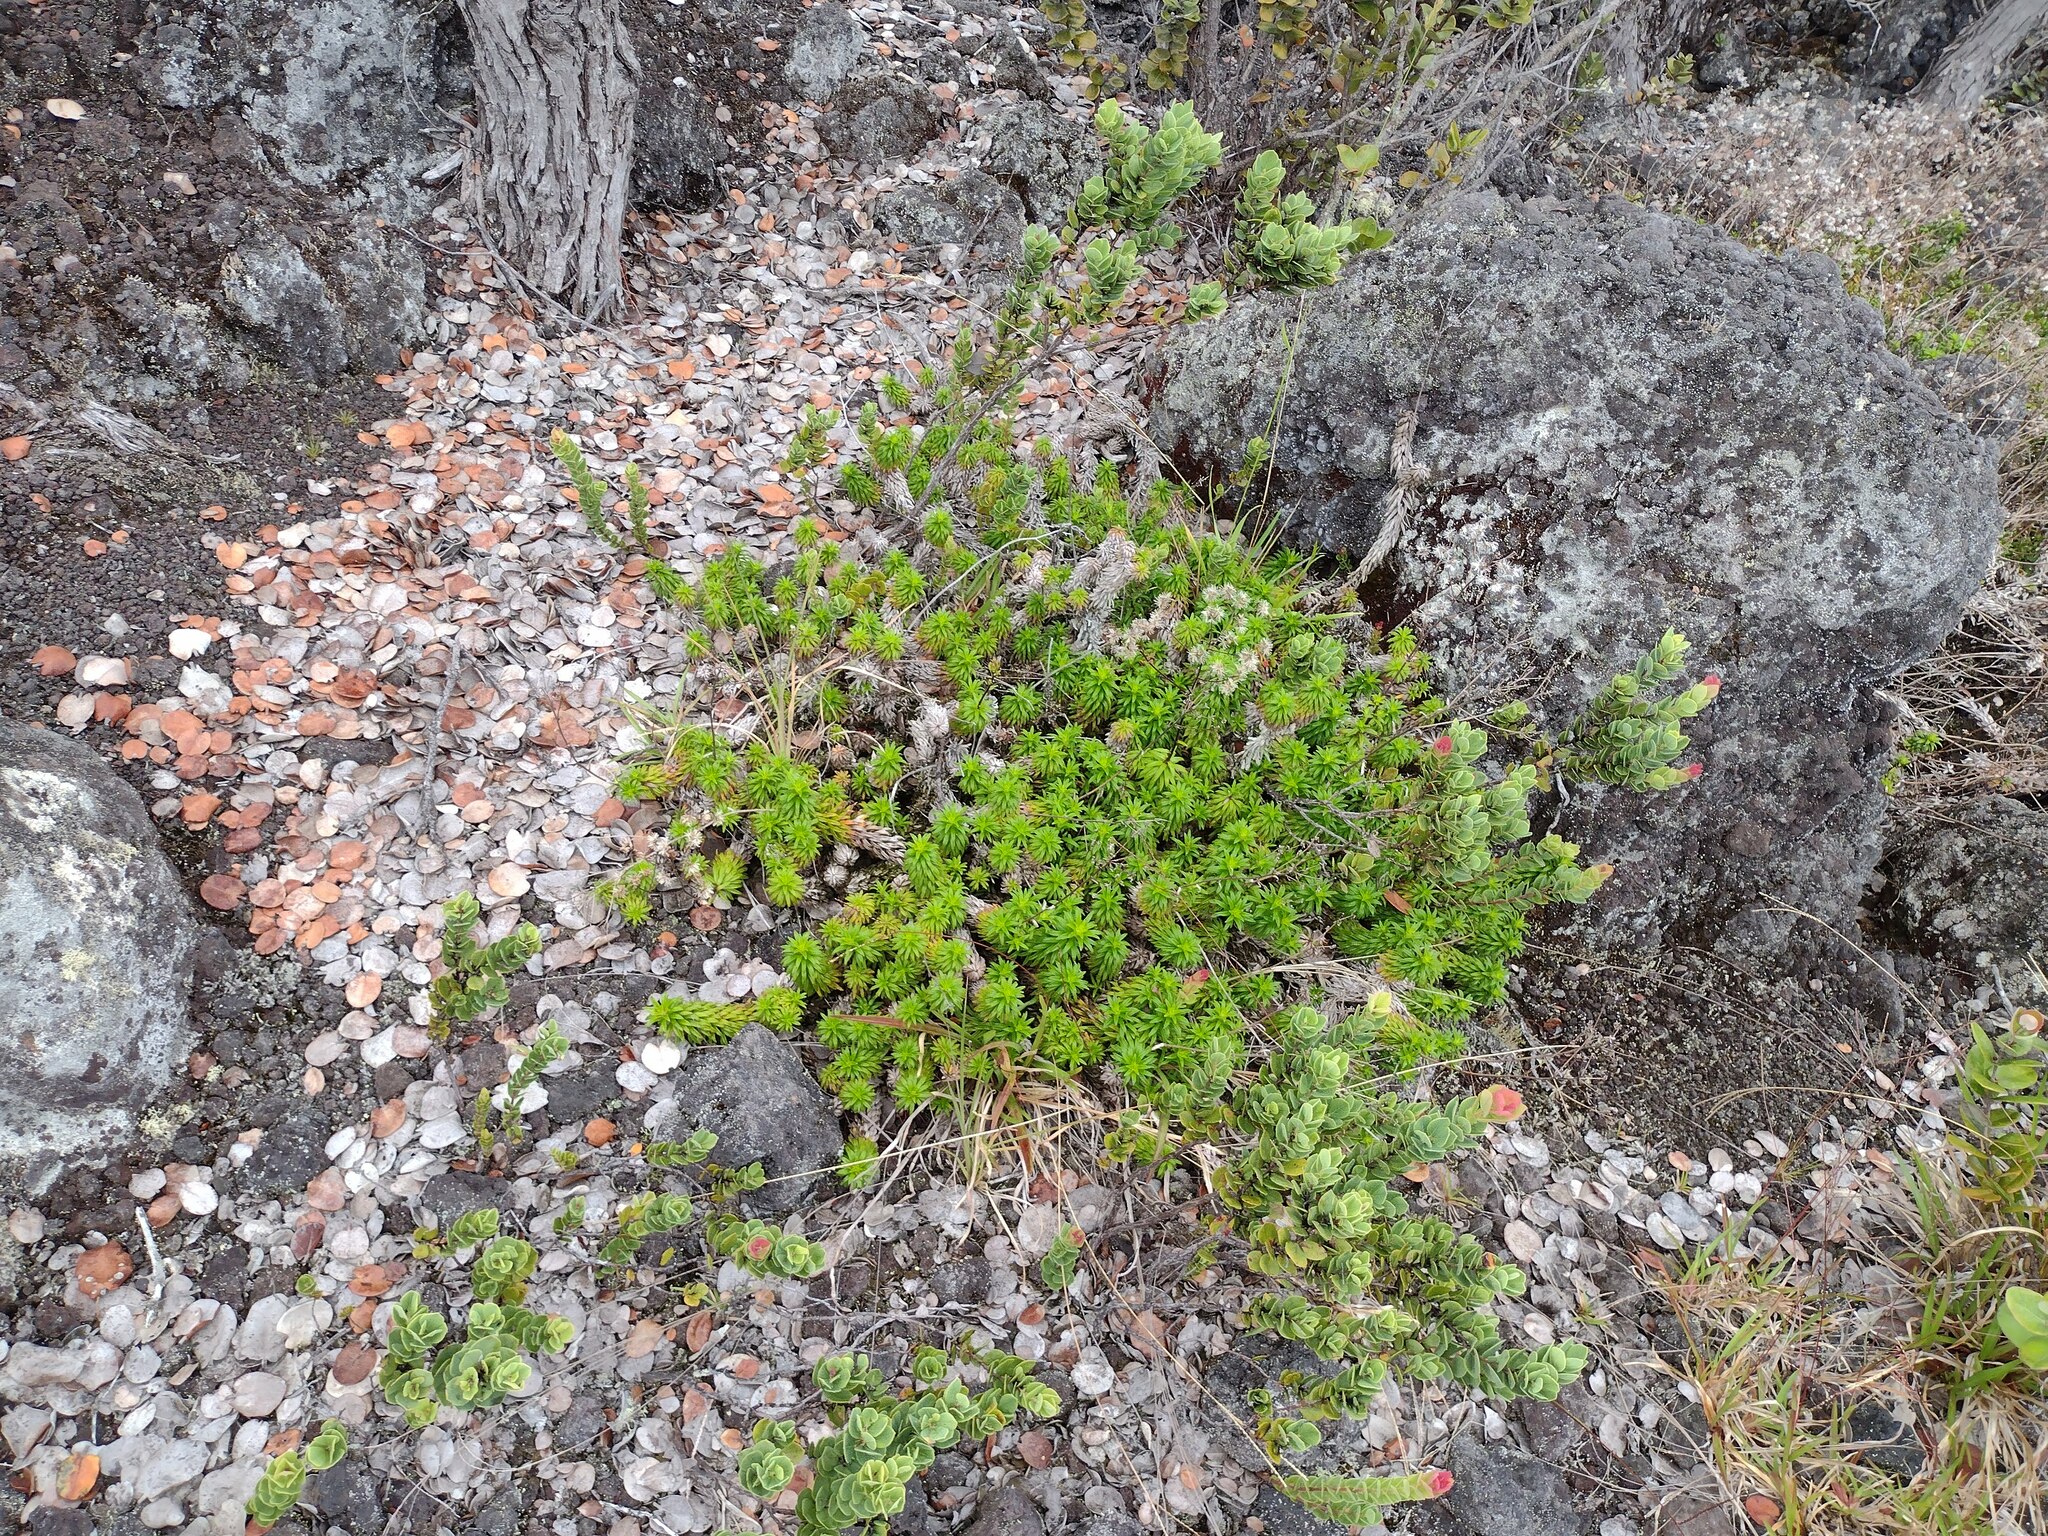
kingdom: Plantae
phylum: Tracheophyta
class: Magnoliopsida
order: Asterales
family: Asteraceae
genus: Dubautia
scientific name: Dubautia scabra
